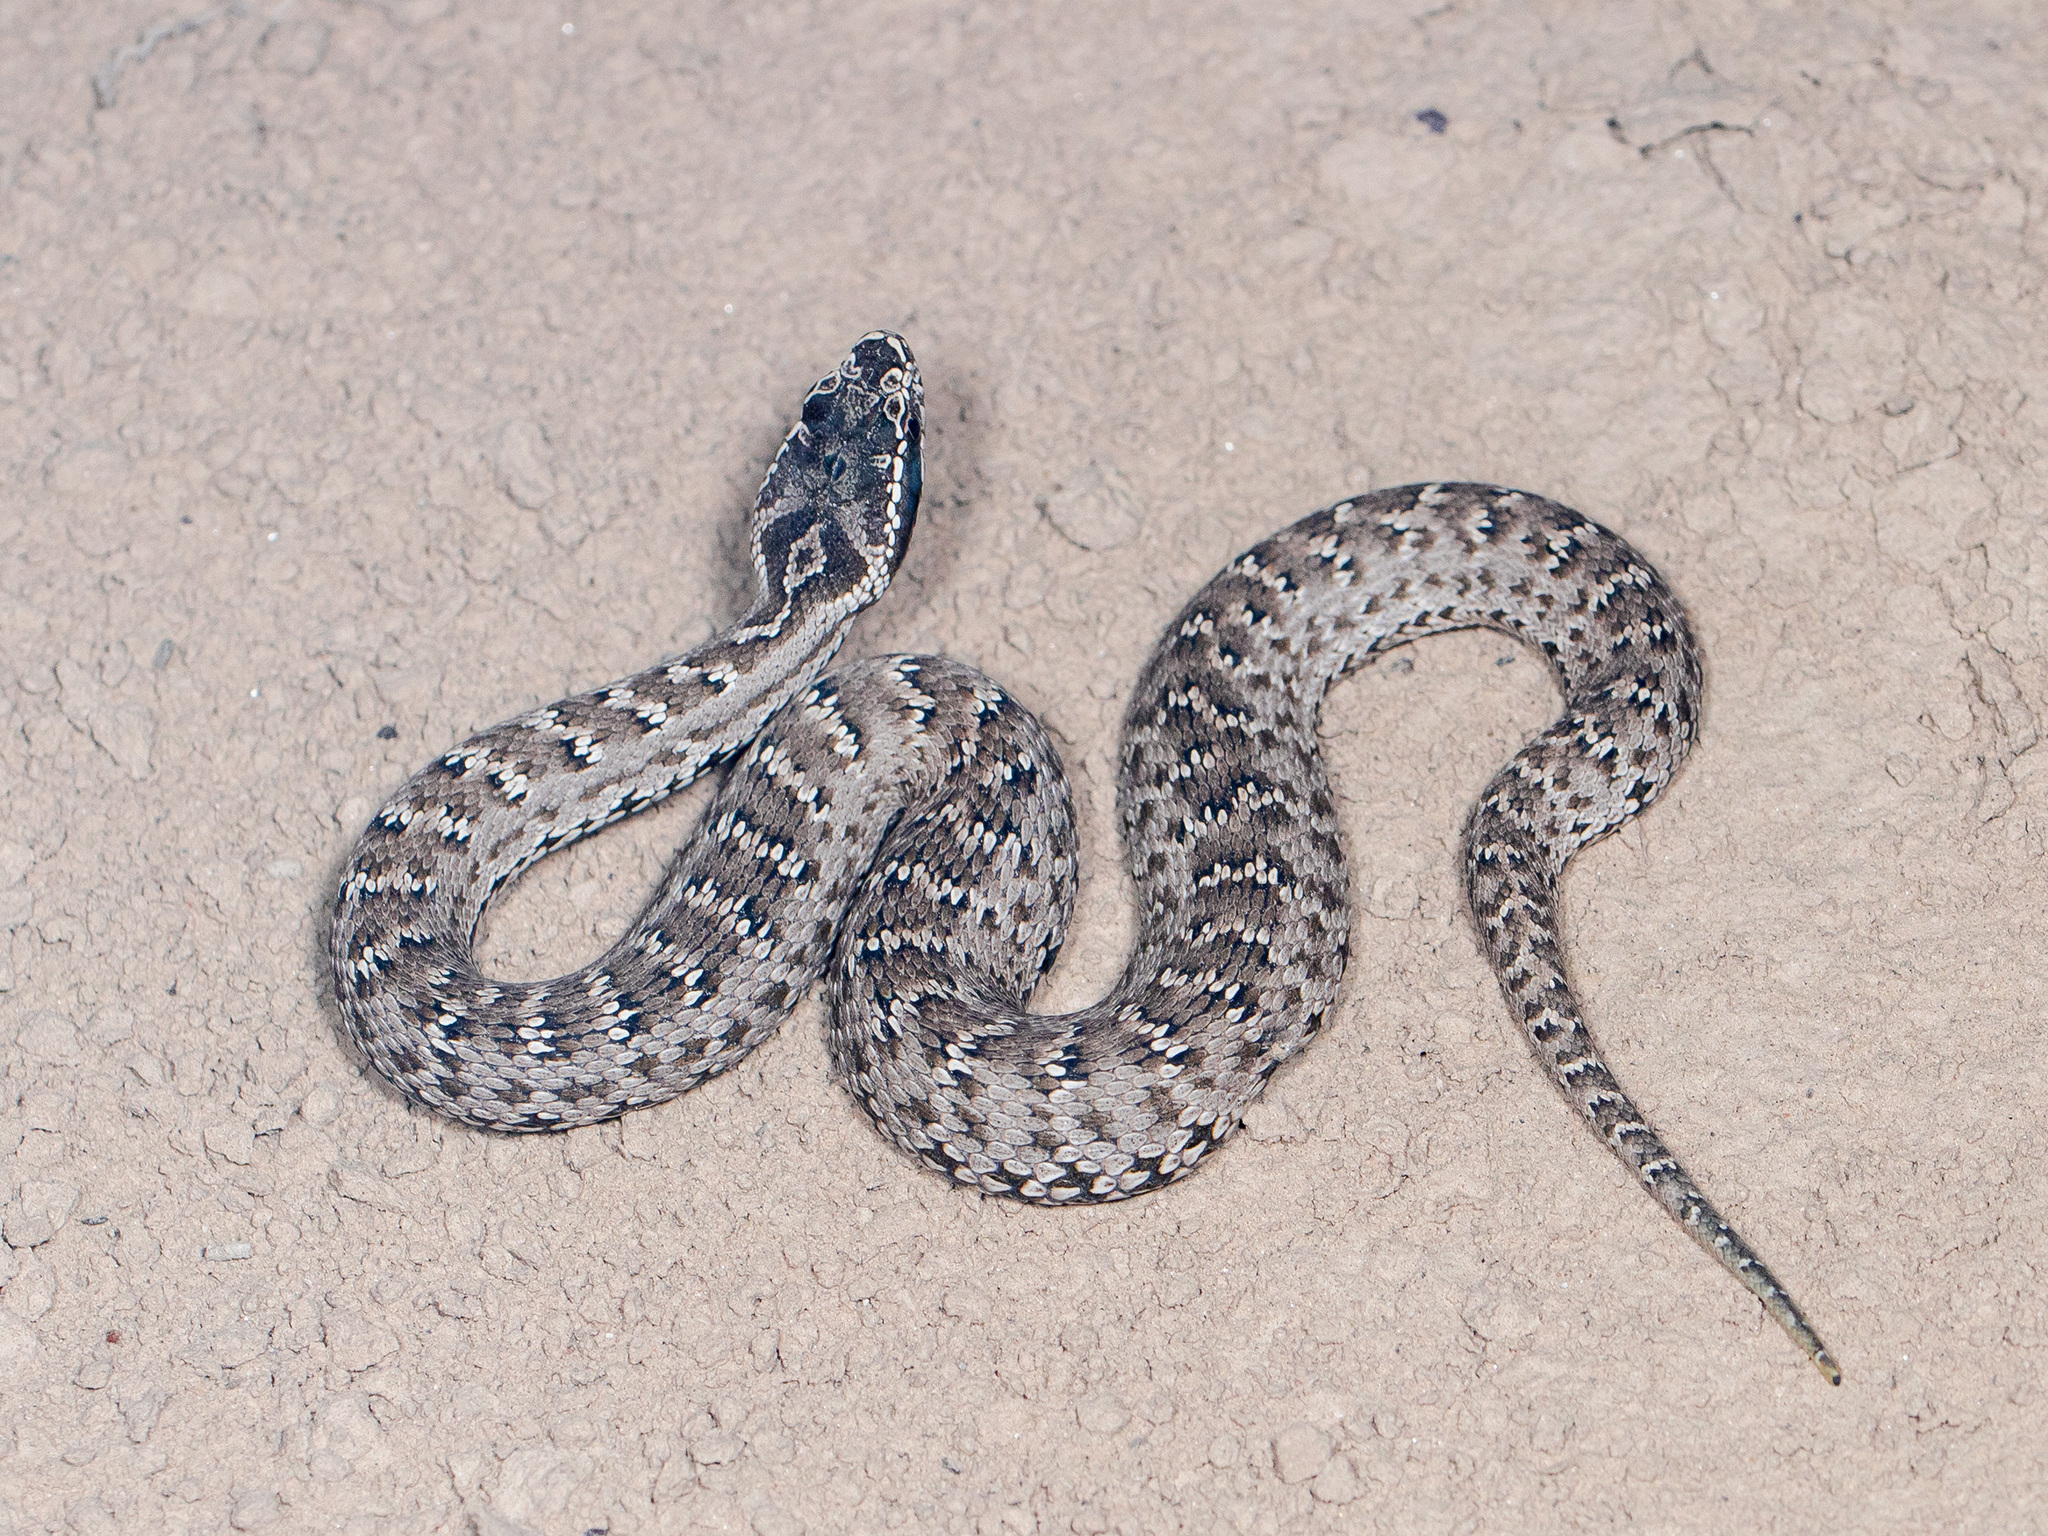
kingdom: Animalia
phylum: Chordata
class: Squamata
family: Viperidae
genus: Gloydius
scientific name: Gloydius halys
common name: Halys pit viper
